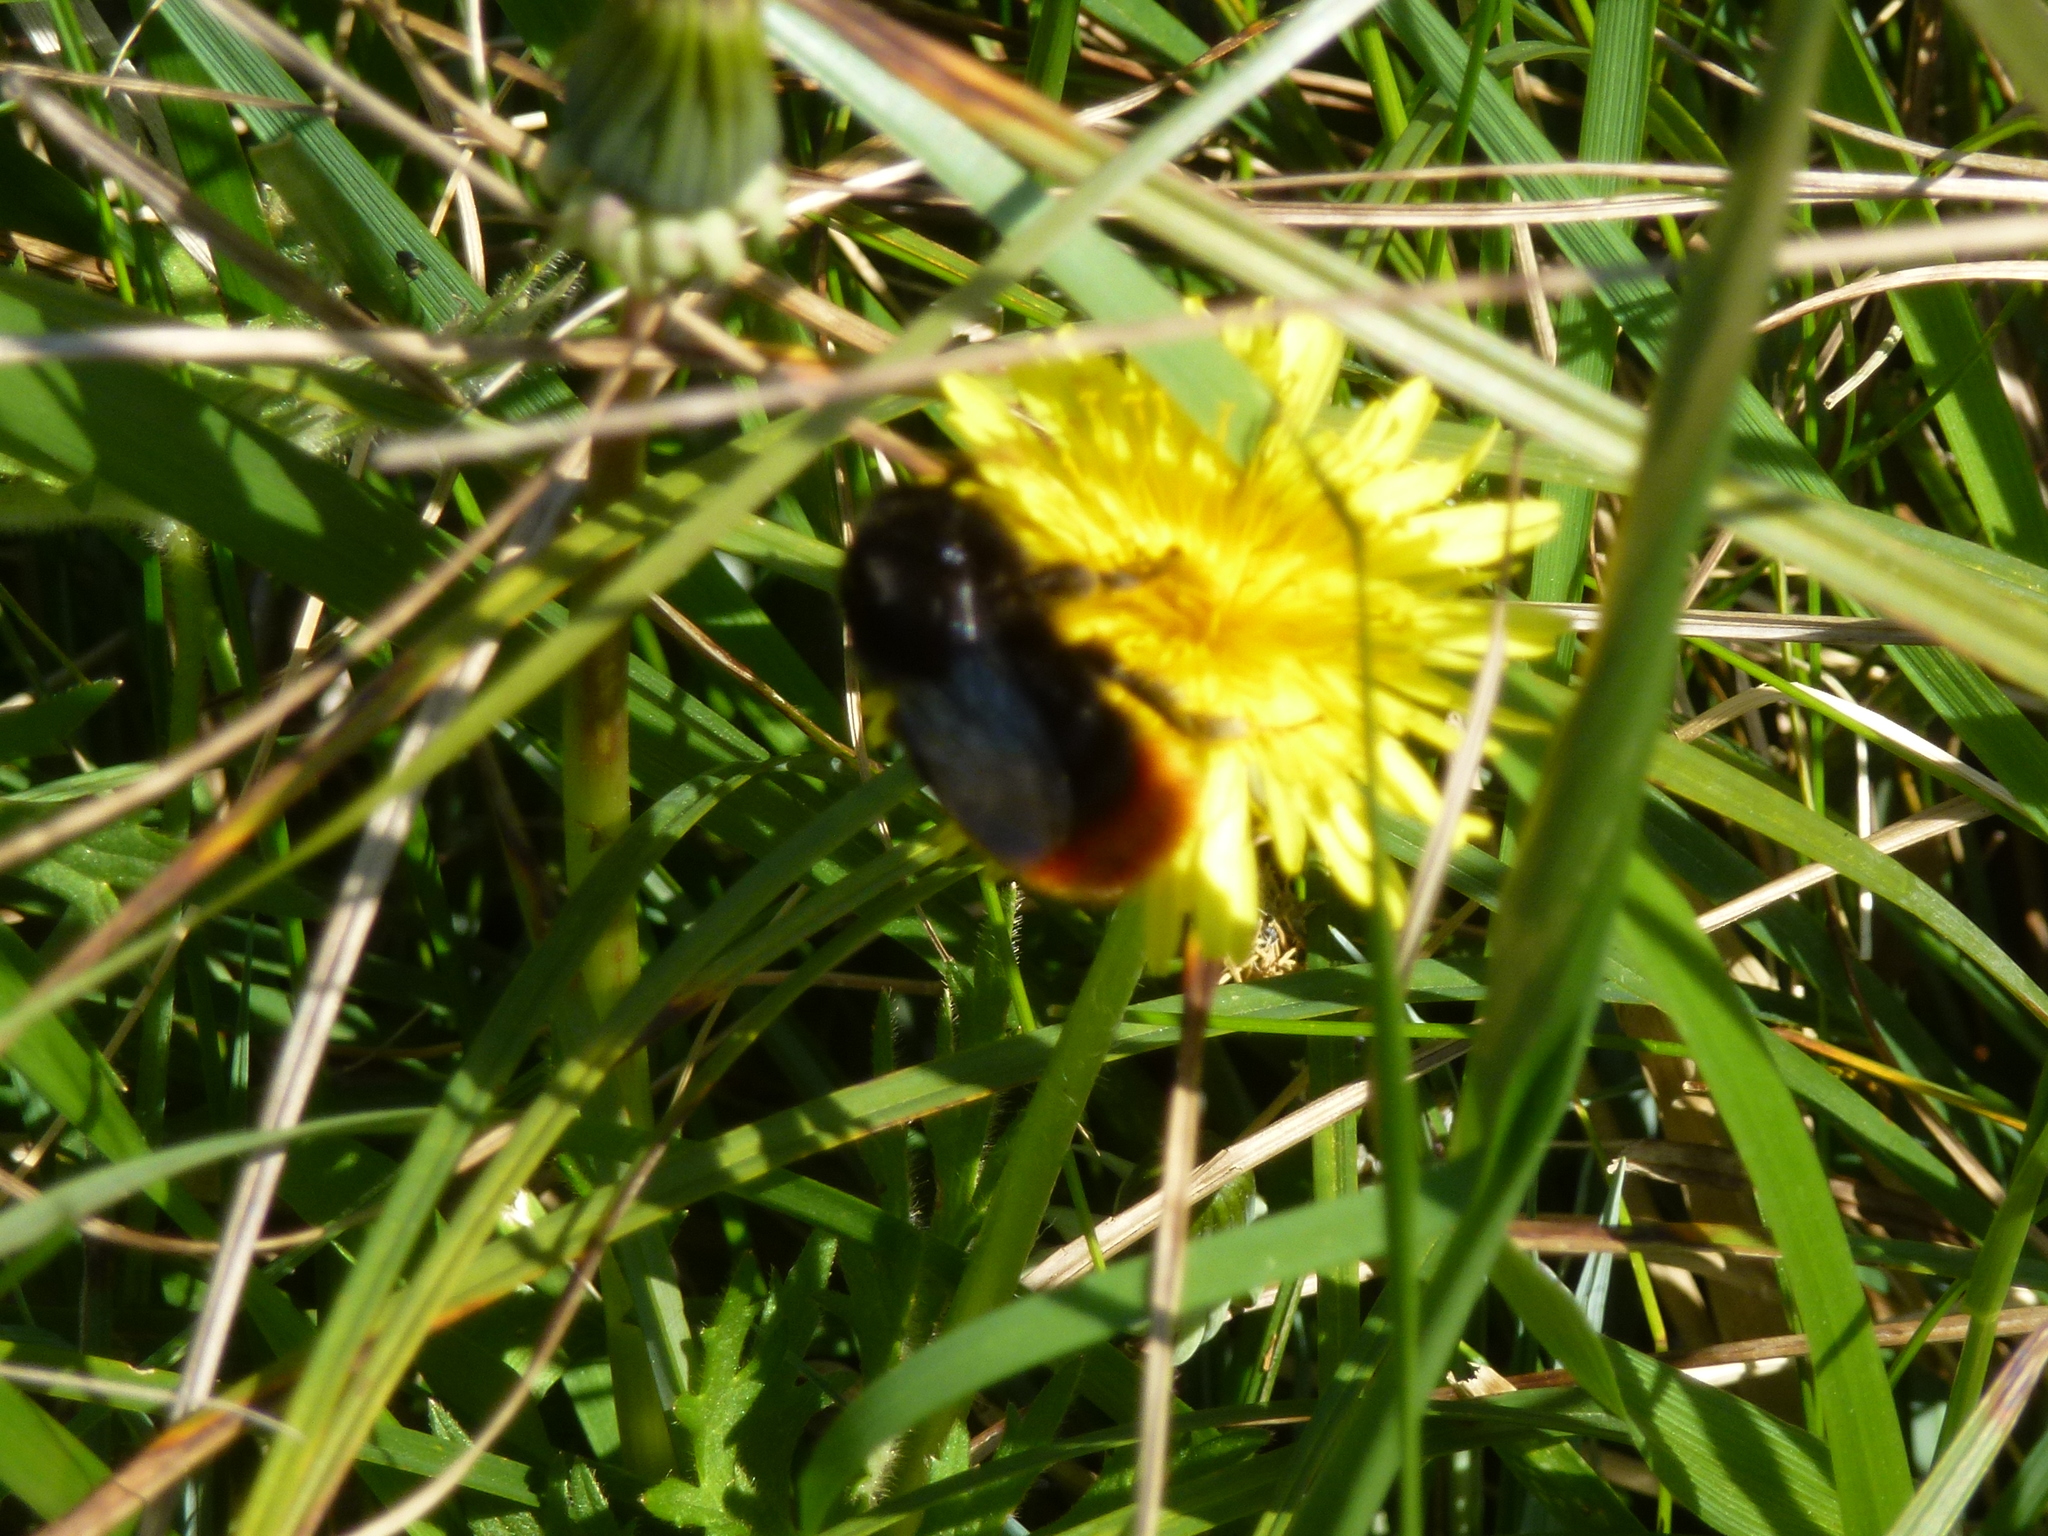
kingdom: Animalia
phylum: Arthropoda
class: Insecta
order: Hymenoptera
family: Apidae
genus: Bombus
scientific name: Bombus lapidarius
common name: Large red-tailed humble-bee
